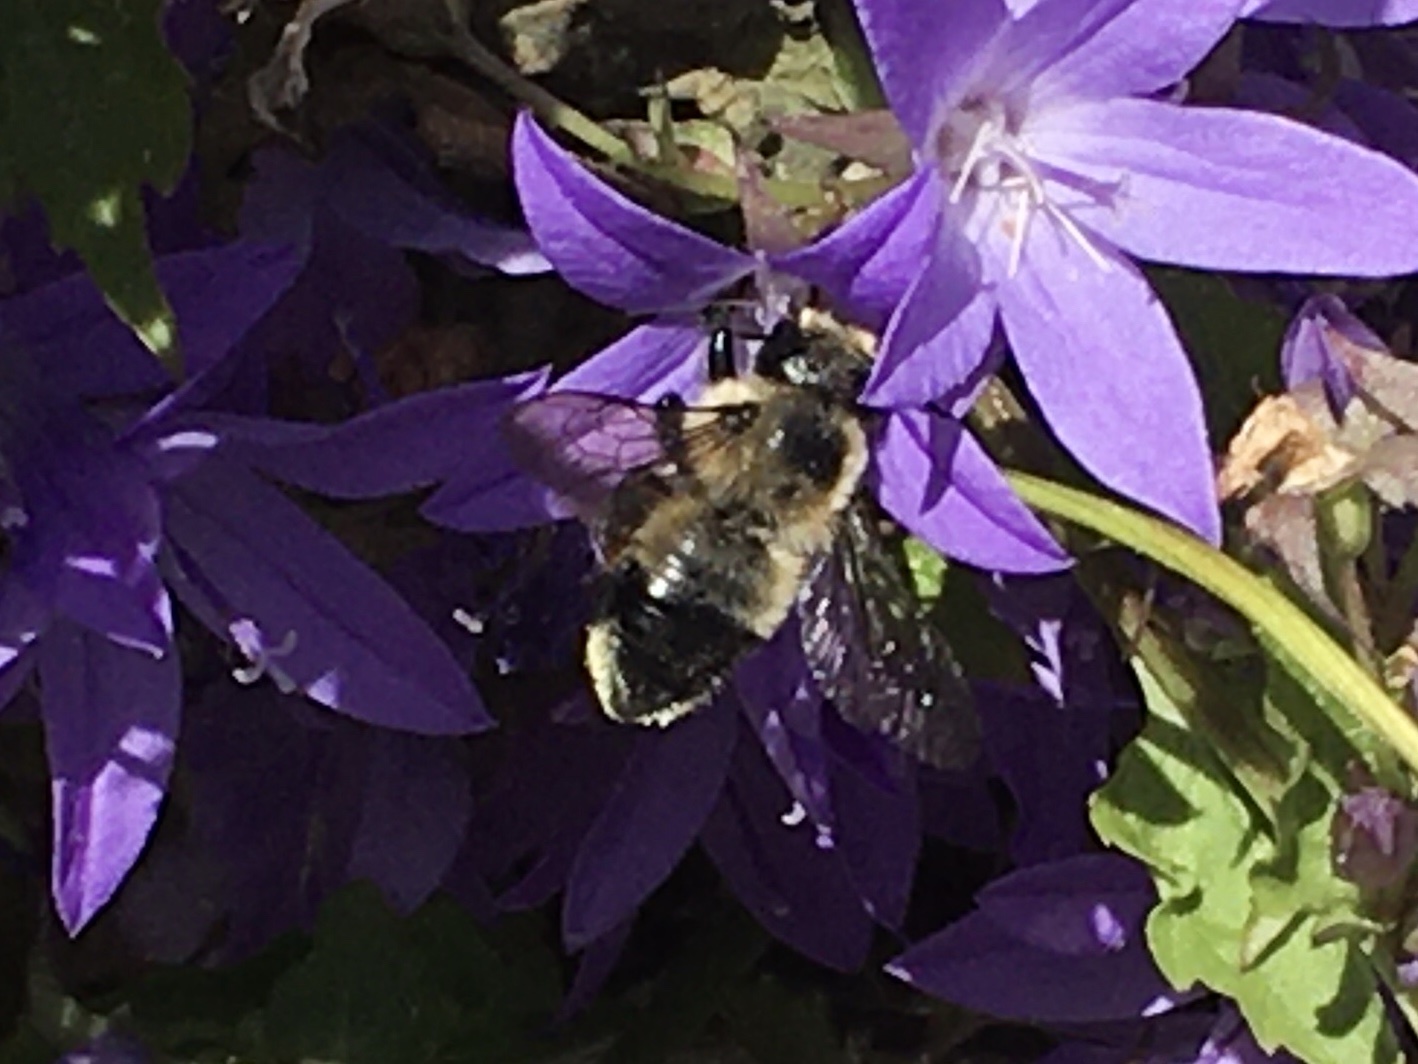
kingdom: Animalia
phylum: Arthropoda
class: Insecta
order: Hymenoptera
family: Megachilidae
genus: Megachile
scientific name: Megachile melanophaea
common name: Black-and-gray leafcutter bee
